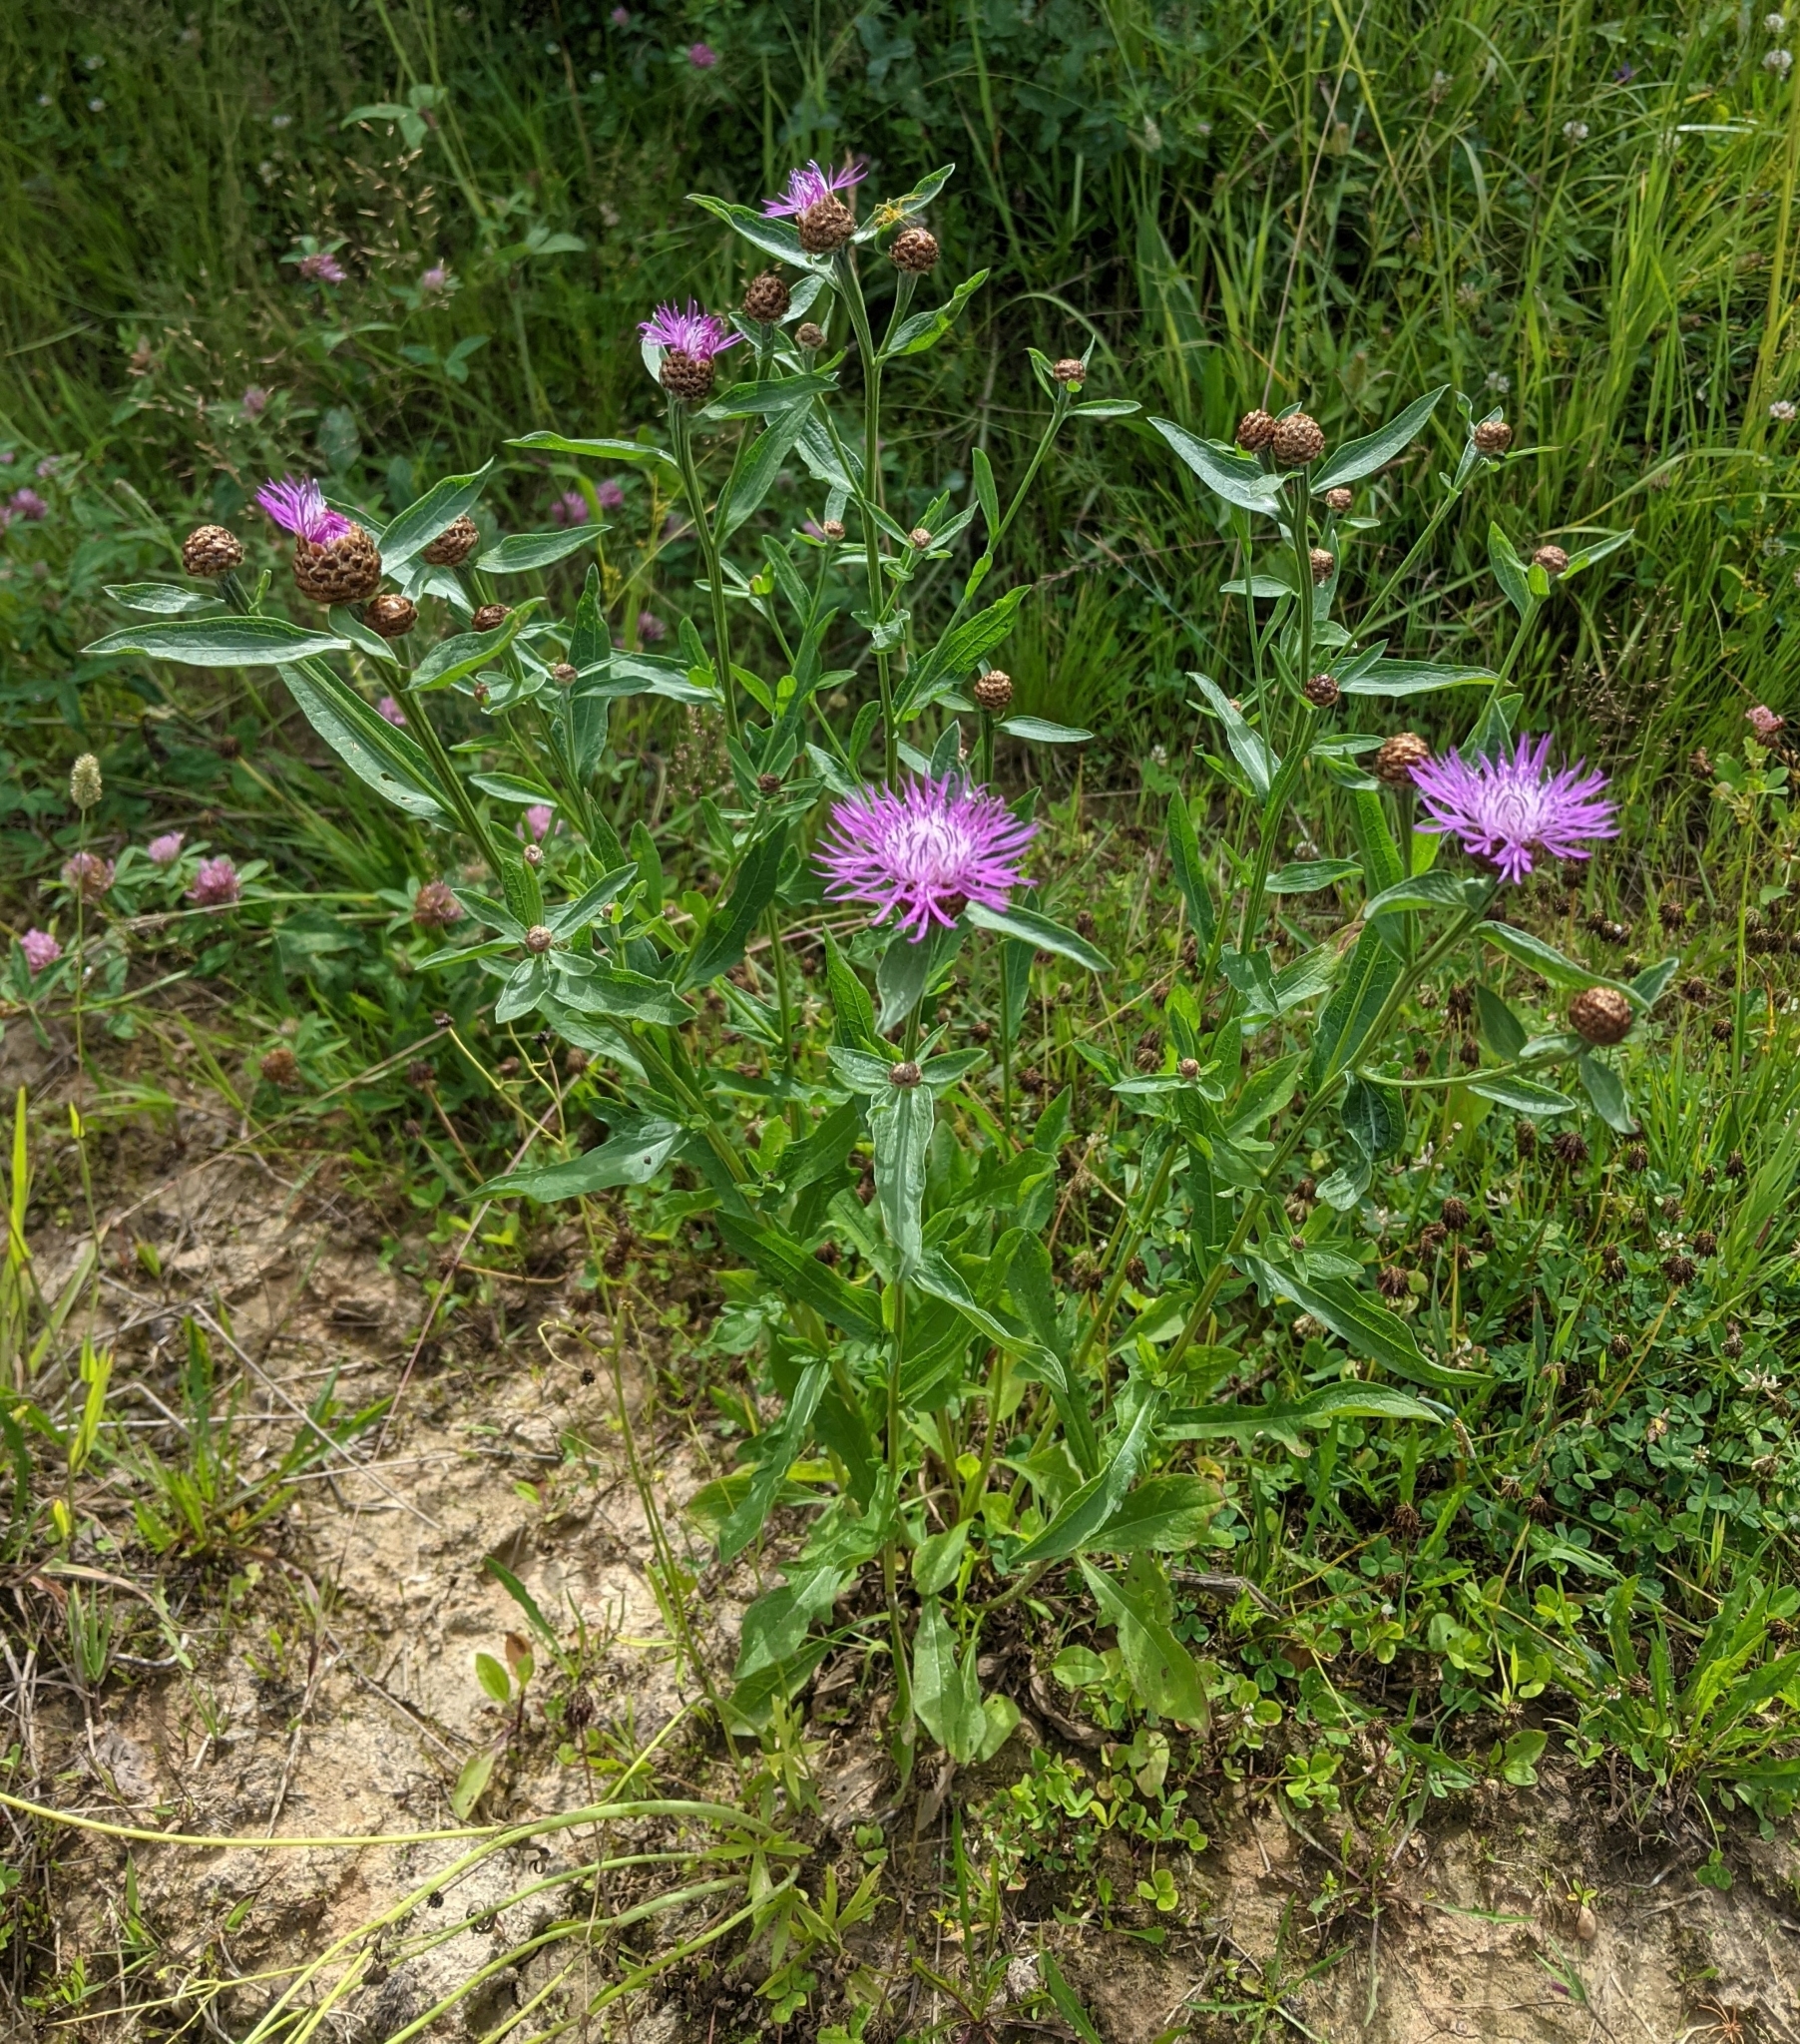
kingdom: Plantae
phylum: Tracheophyta
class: Magnoliopsida
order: Asterales
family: Asteraceae
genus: Centaurea
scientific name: Centaurea jacea
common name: Brown knapweed
